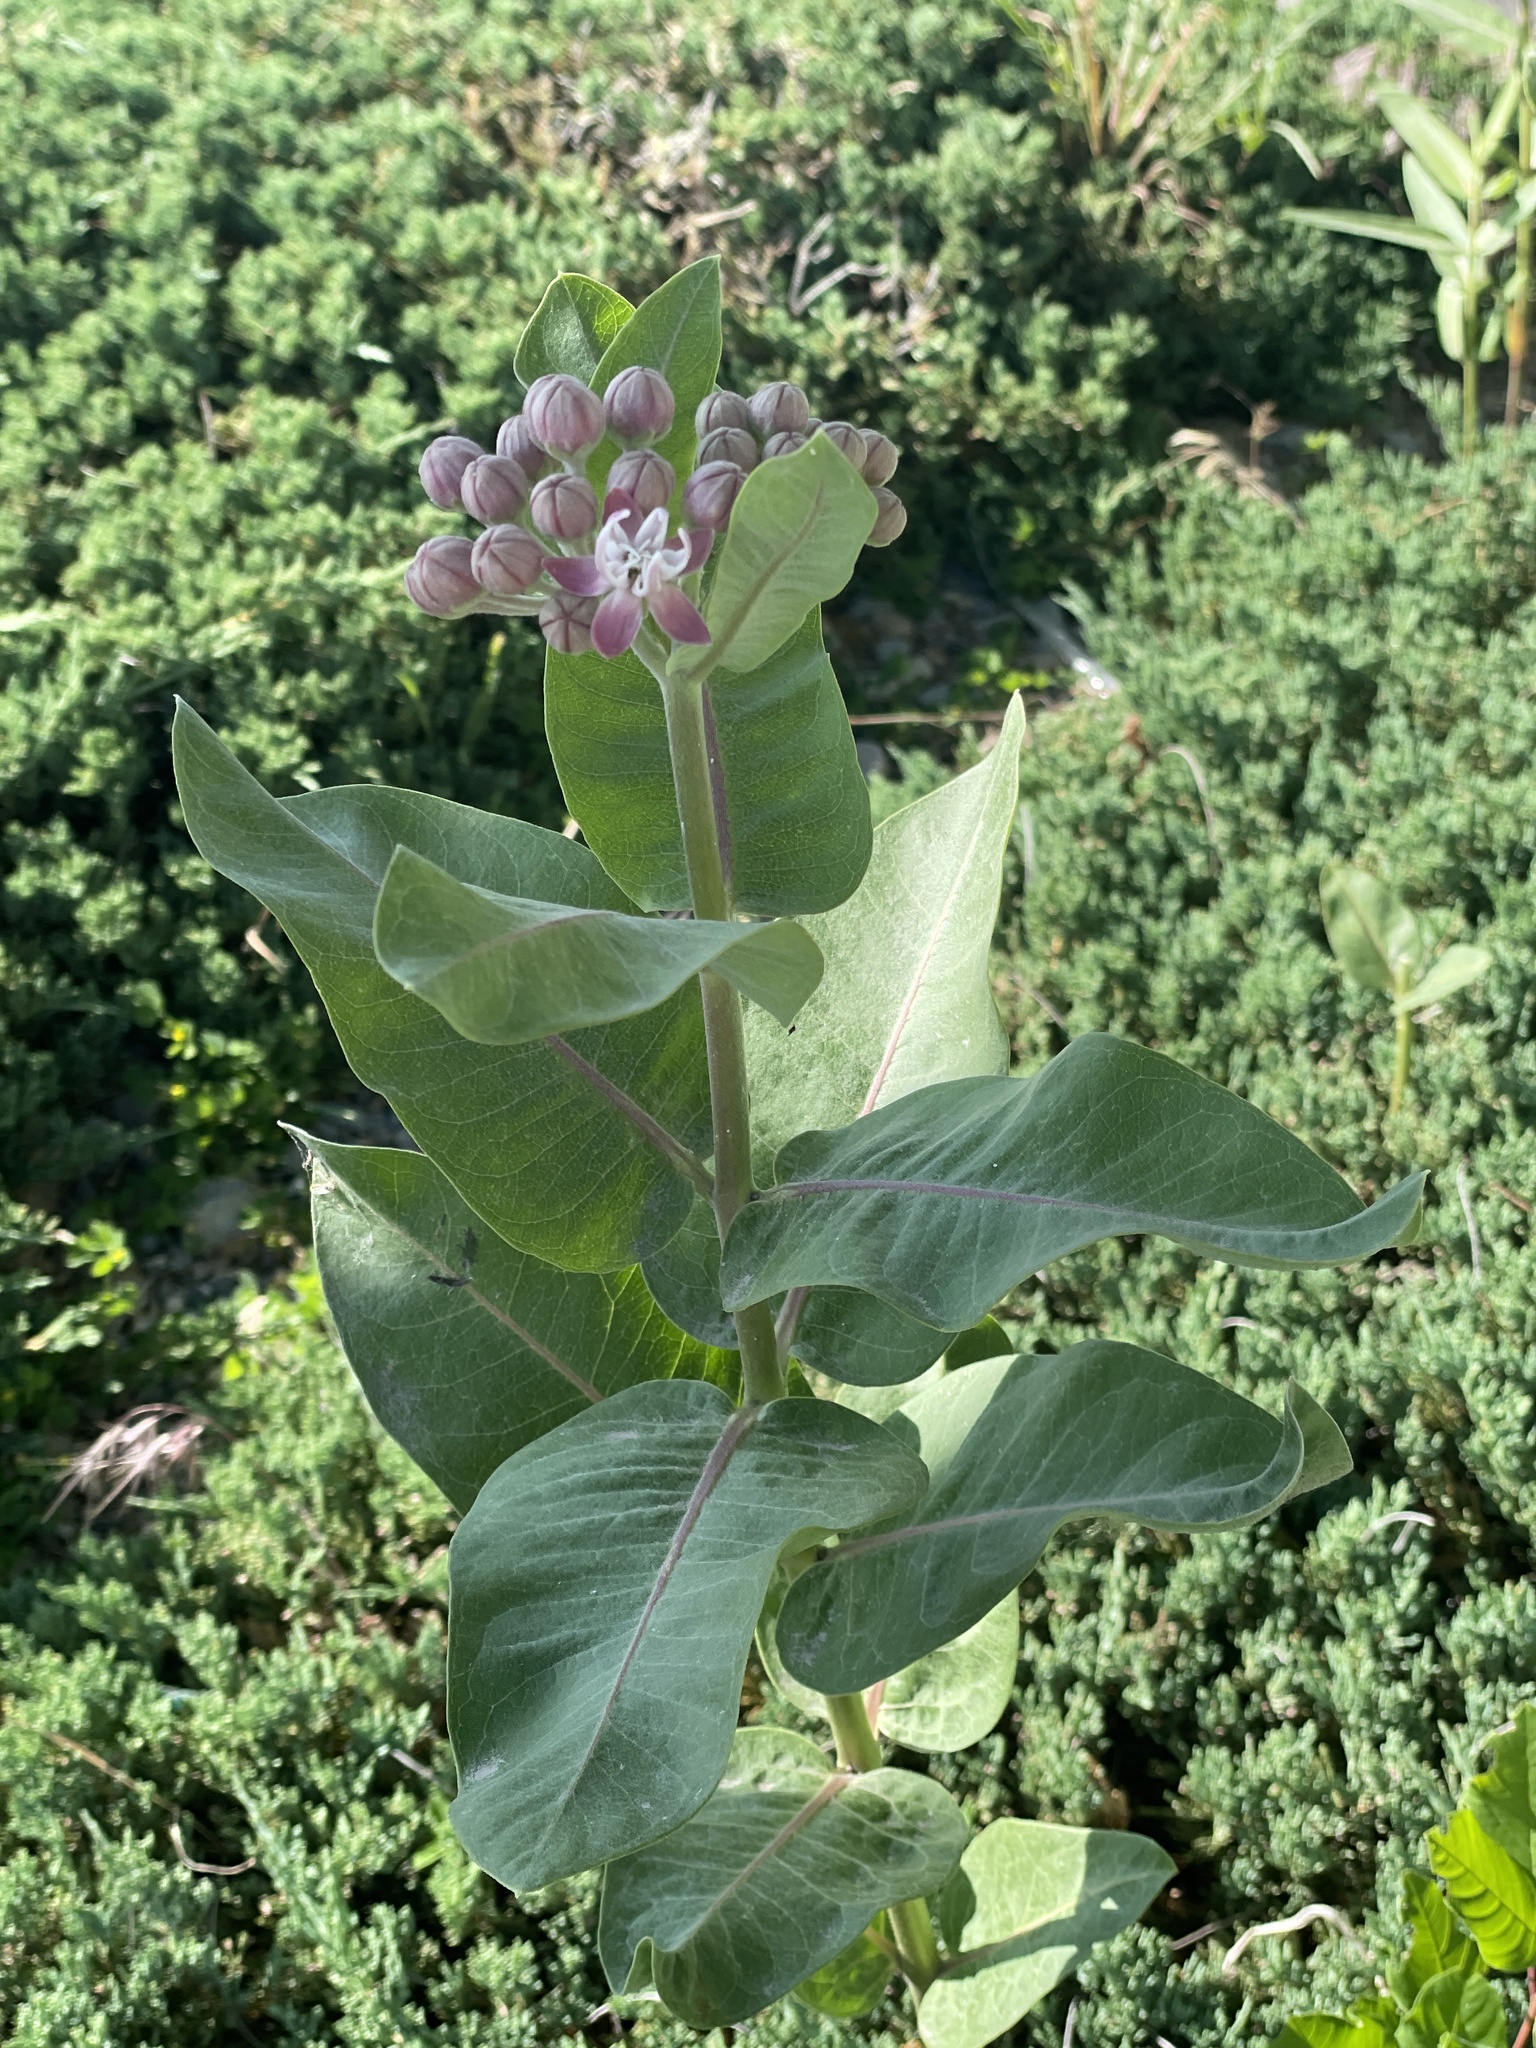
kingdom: Plantae
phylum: Tracheophyta
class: Magnoliopsida
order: Gentianales
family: Apocynaceae
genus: Asclepias
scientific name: Asclepias speciosa
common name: Showy milkweed
